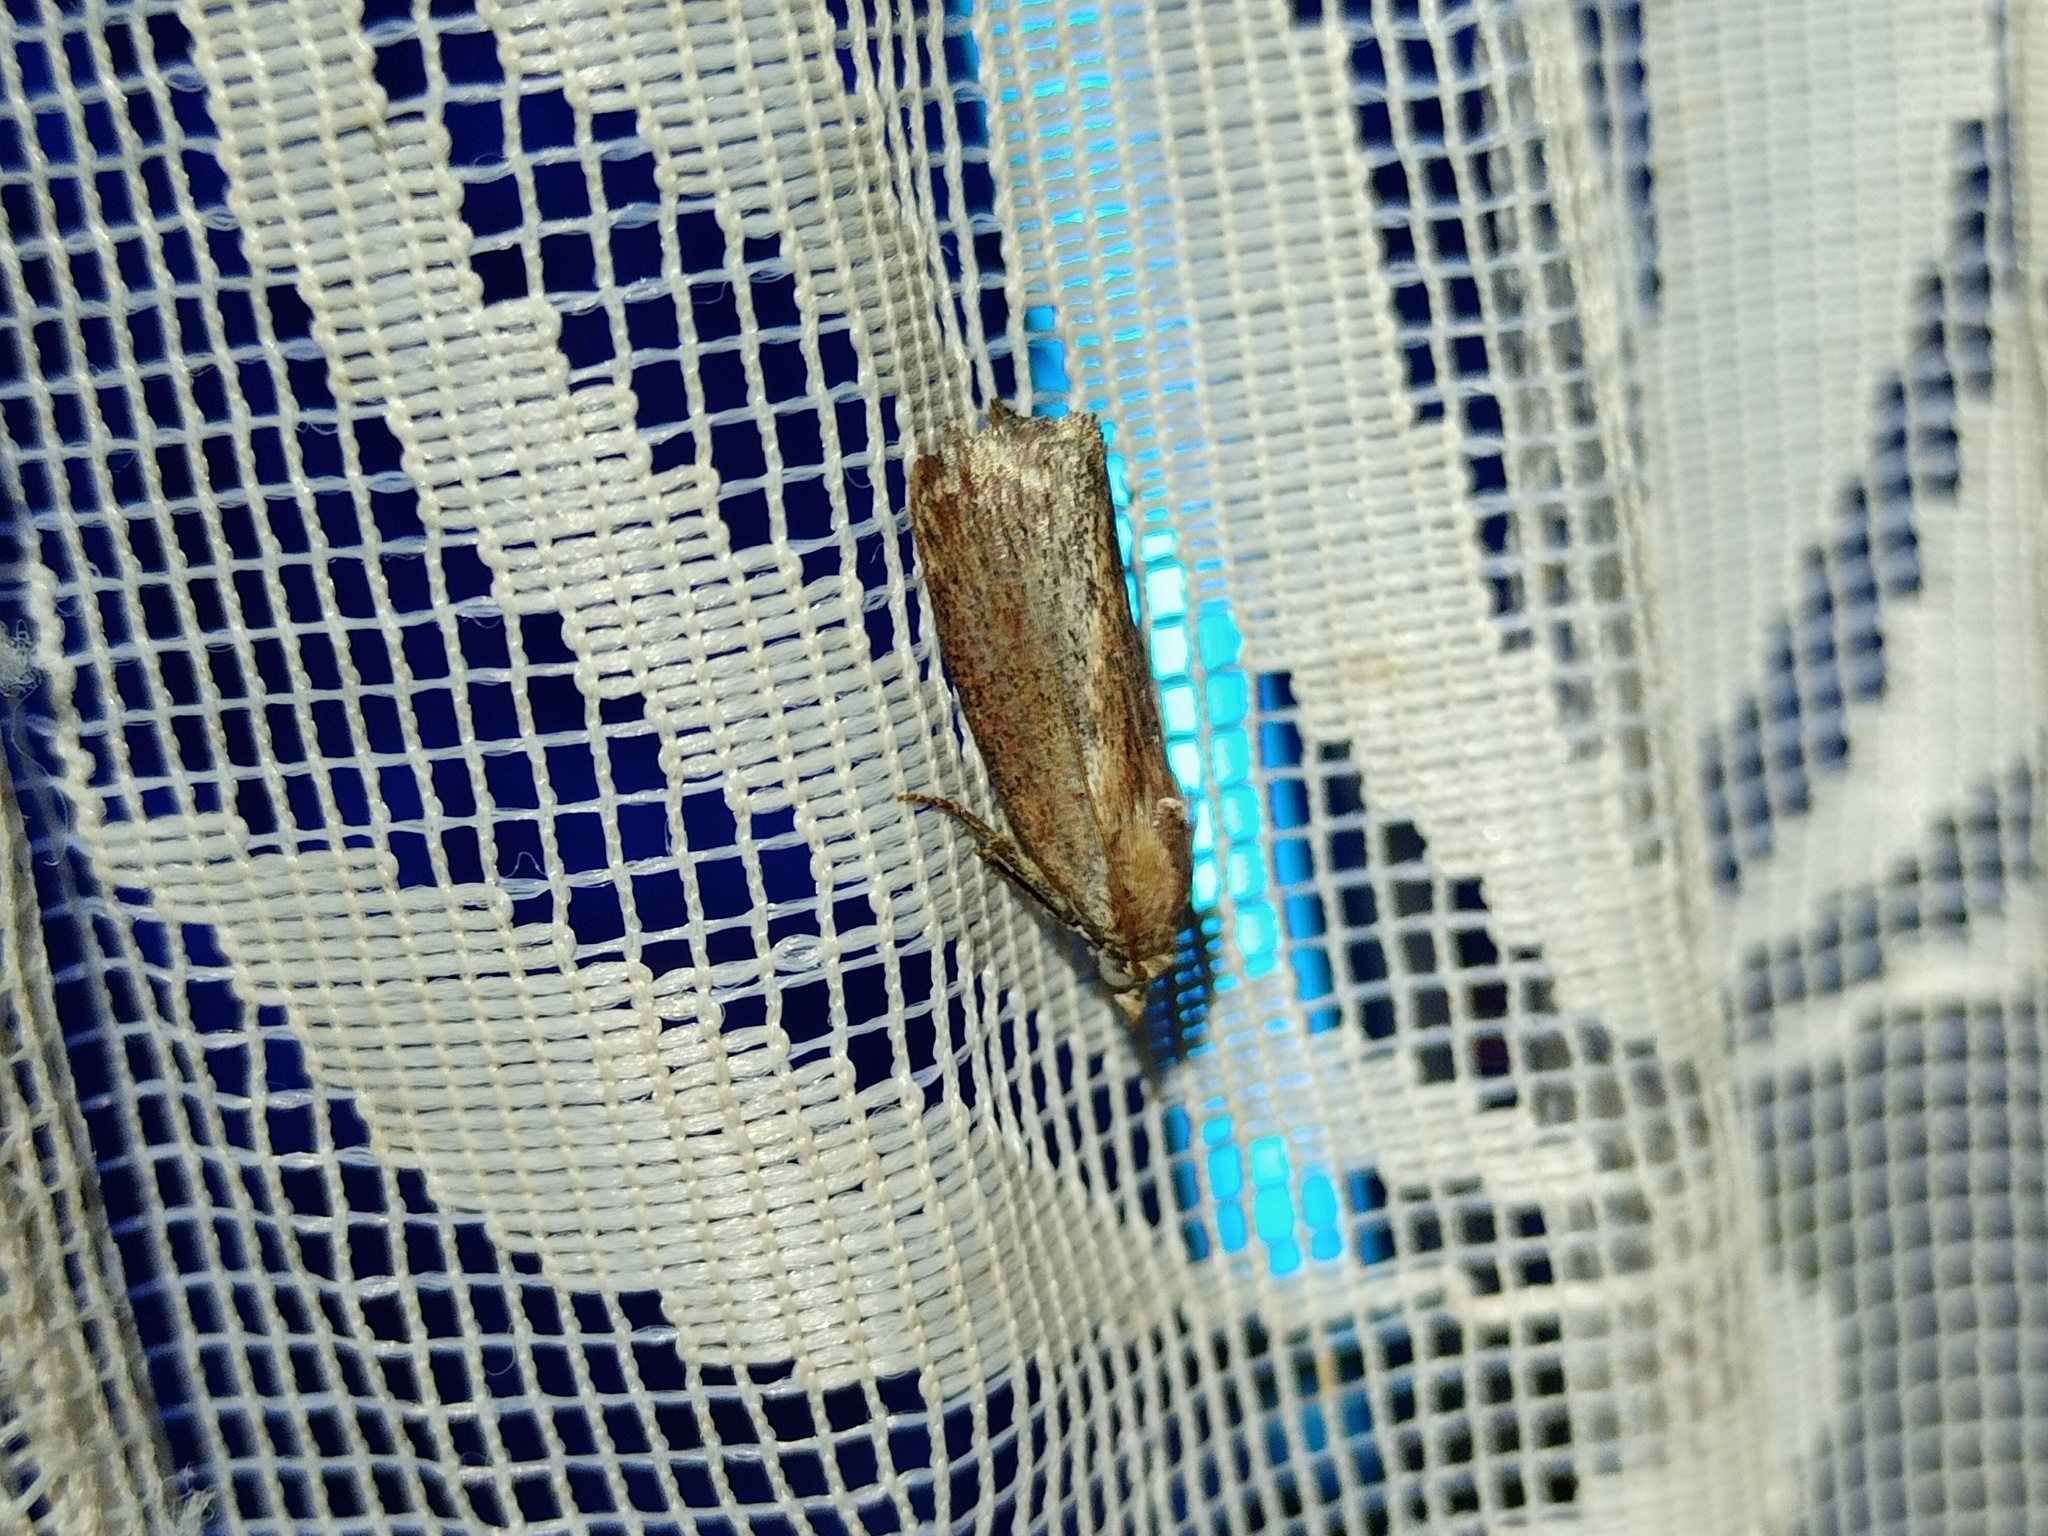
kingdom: Animalia
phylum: Arthropoda
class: Insecta
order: Lepidoptera
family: Pyralidae
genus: Galleria
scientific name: Galleria mellonella
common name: Greater wax moth
